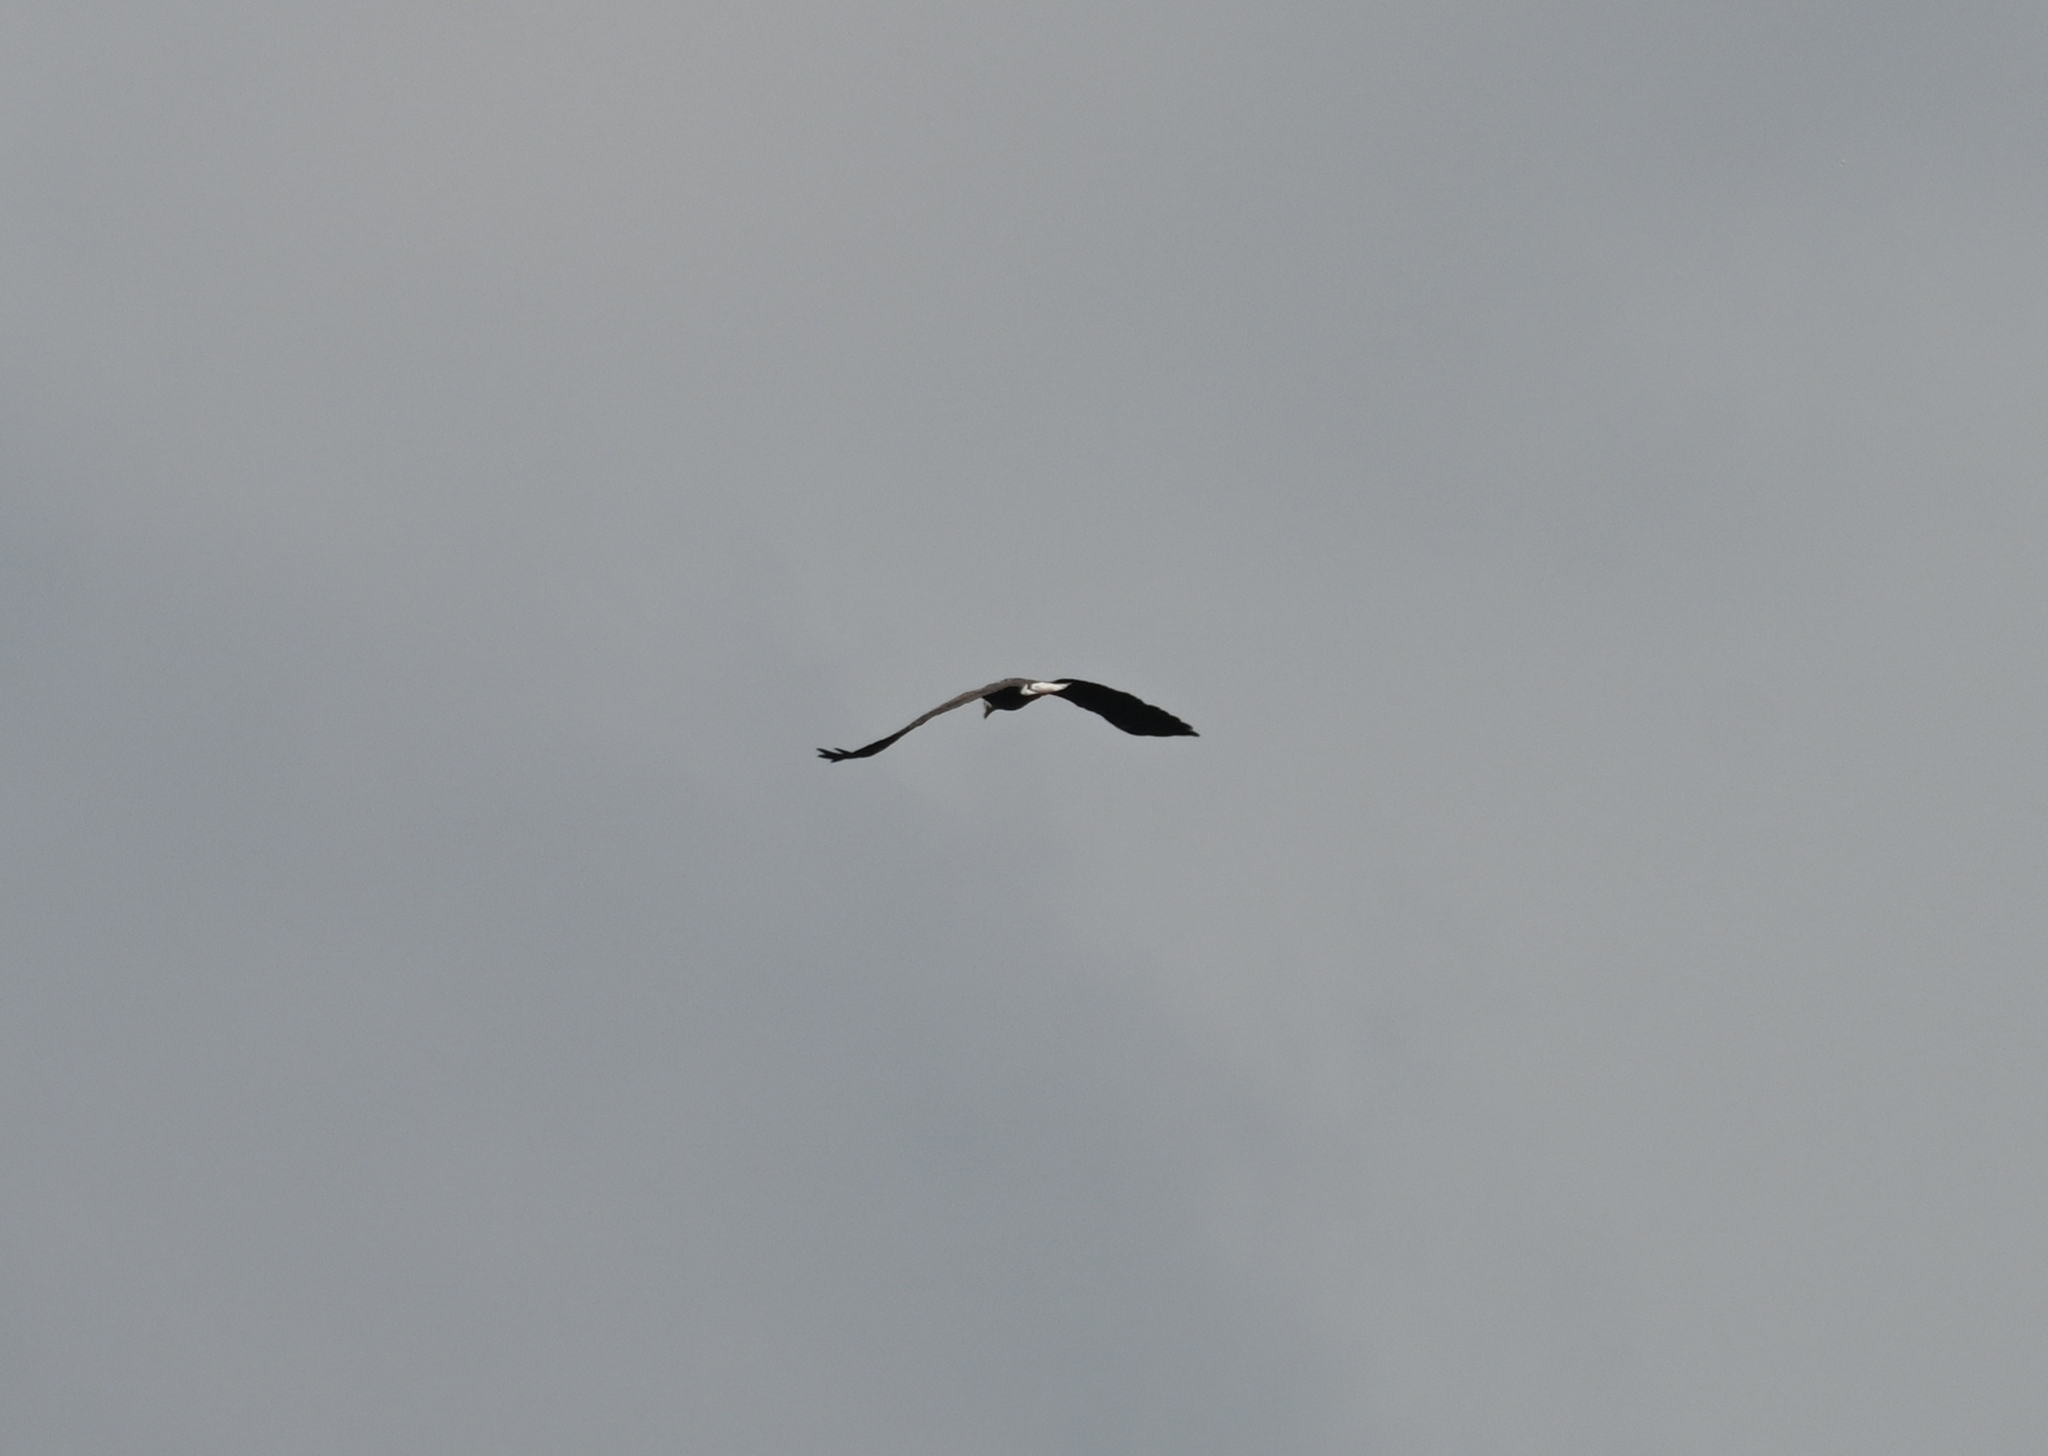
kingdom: Animalia
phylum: Chordata
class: Aves
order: Accipitriformes
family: Accipitridae
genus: Haliaeetus
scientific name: Haliaeetus leucocephalus
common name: Bald eagle
